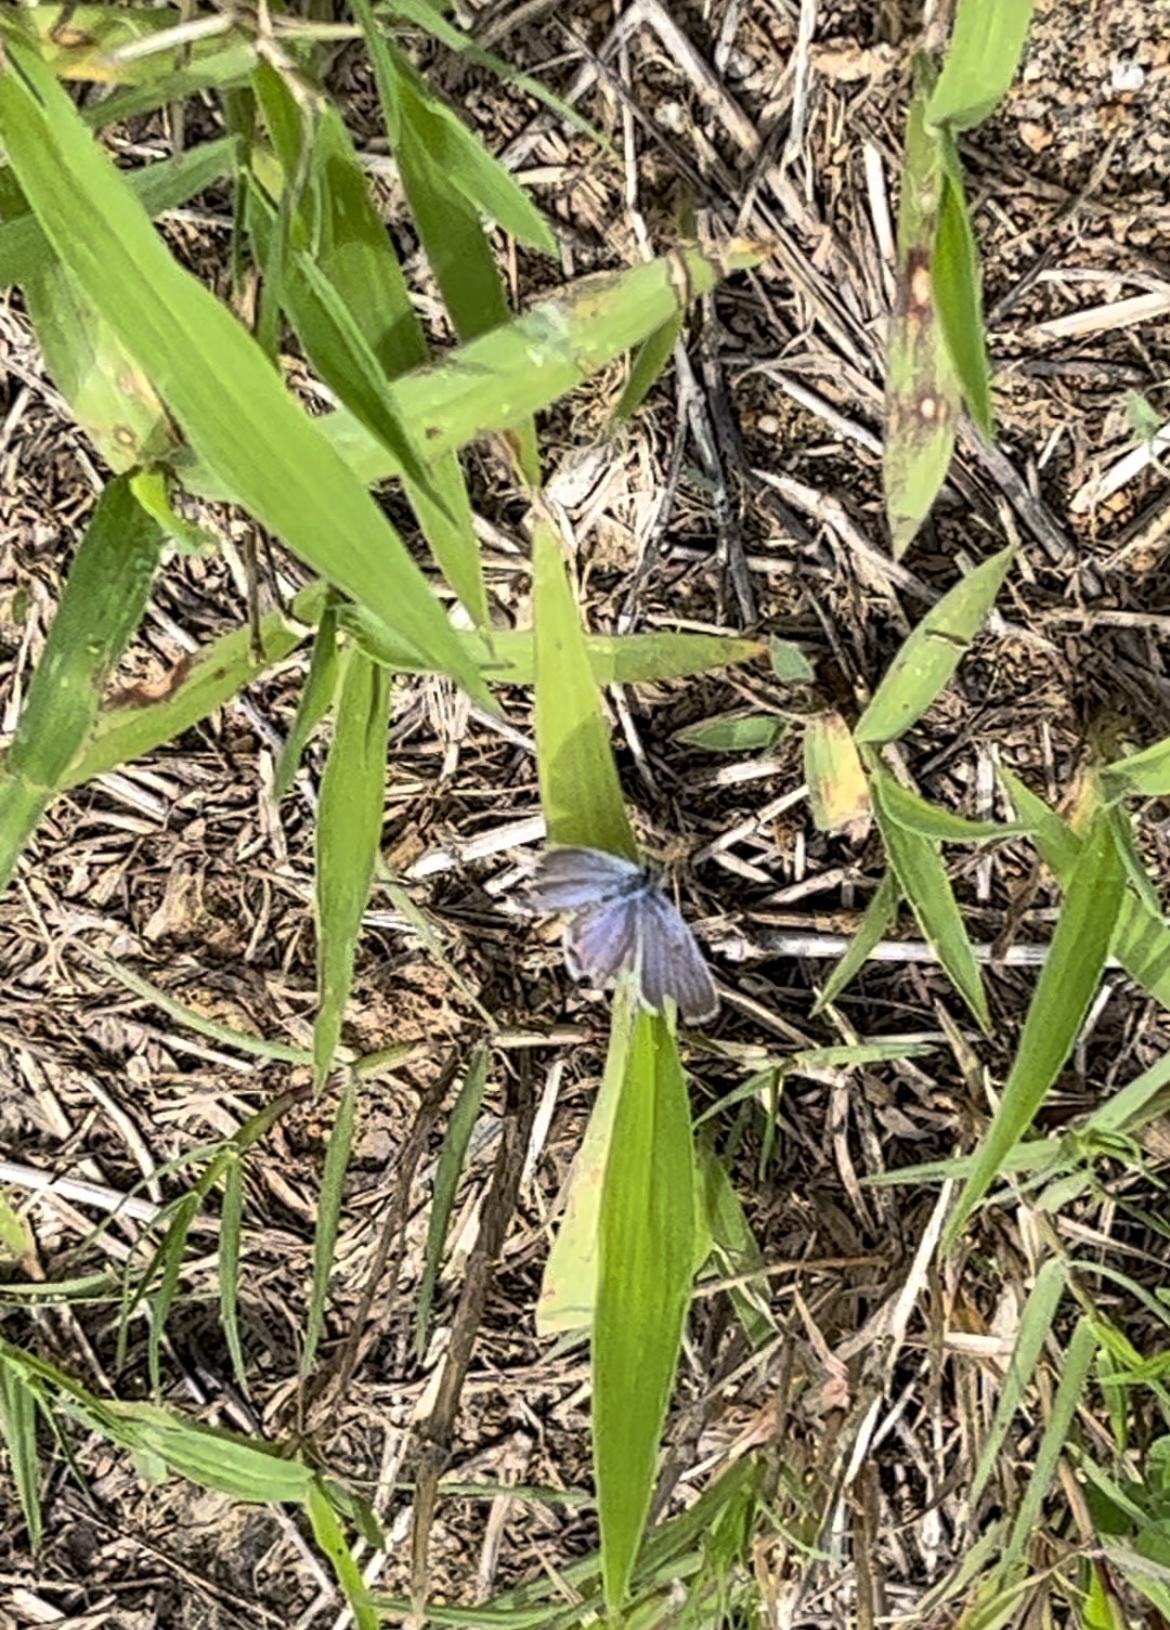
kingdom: Animalia
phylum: Arthropoda
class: Insecta
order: Lepidoptera
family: Lycaenidae
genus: Elkalyce
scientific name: Elkalyce comyntas
